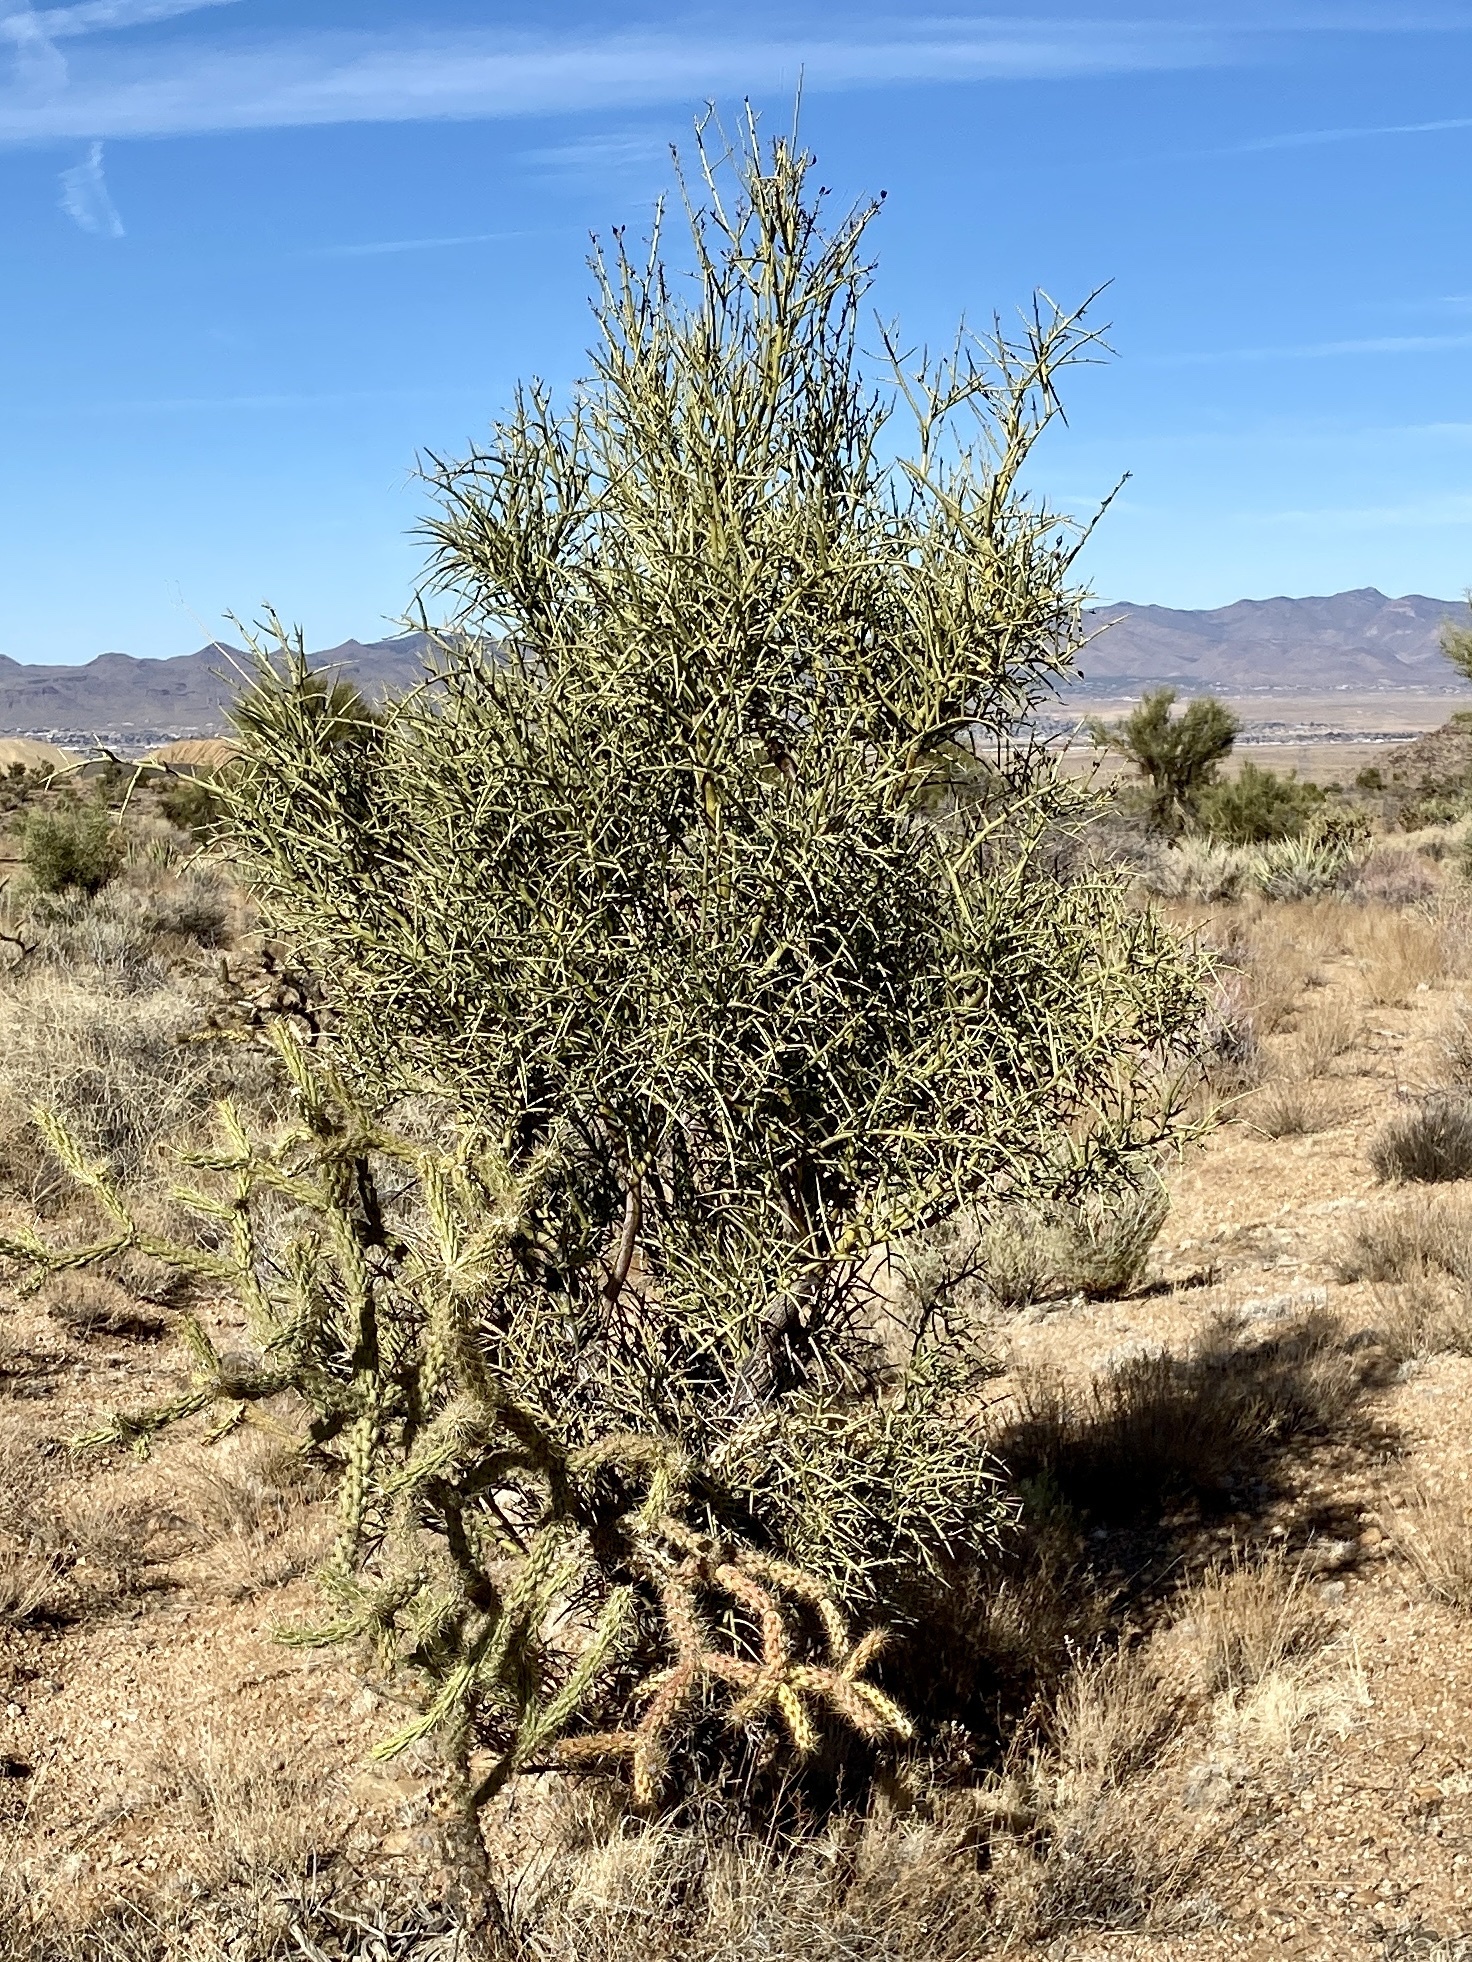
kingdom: Plantae
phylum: Tracheophyta
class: Magnoliopsida
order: Celastrales
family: Celastraceae
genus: Canotia
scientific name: Canotia holacantha
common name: Crucifixion thorns
